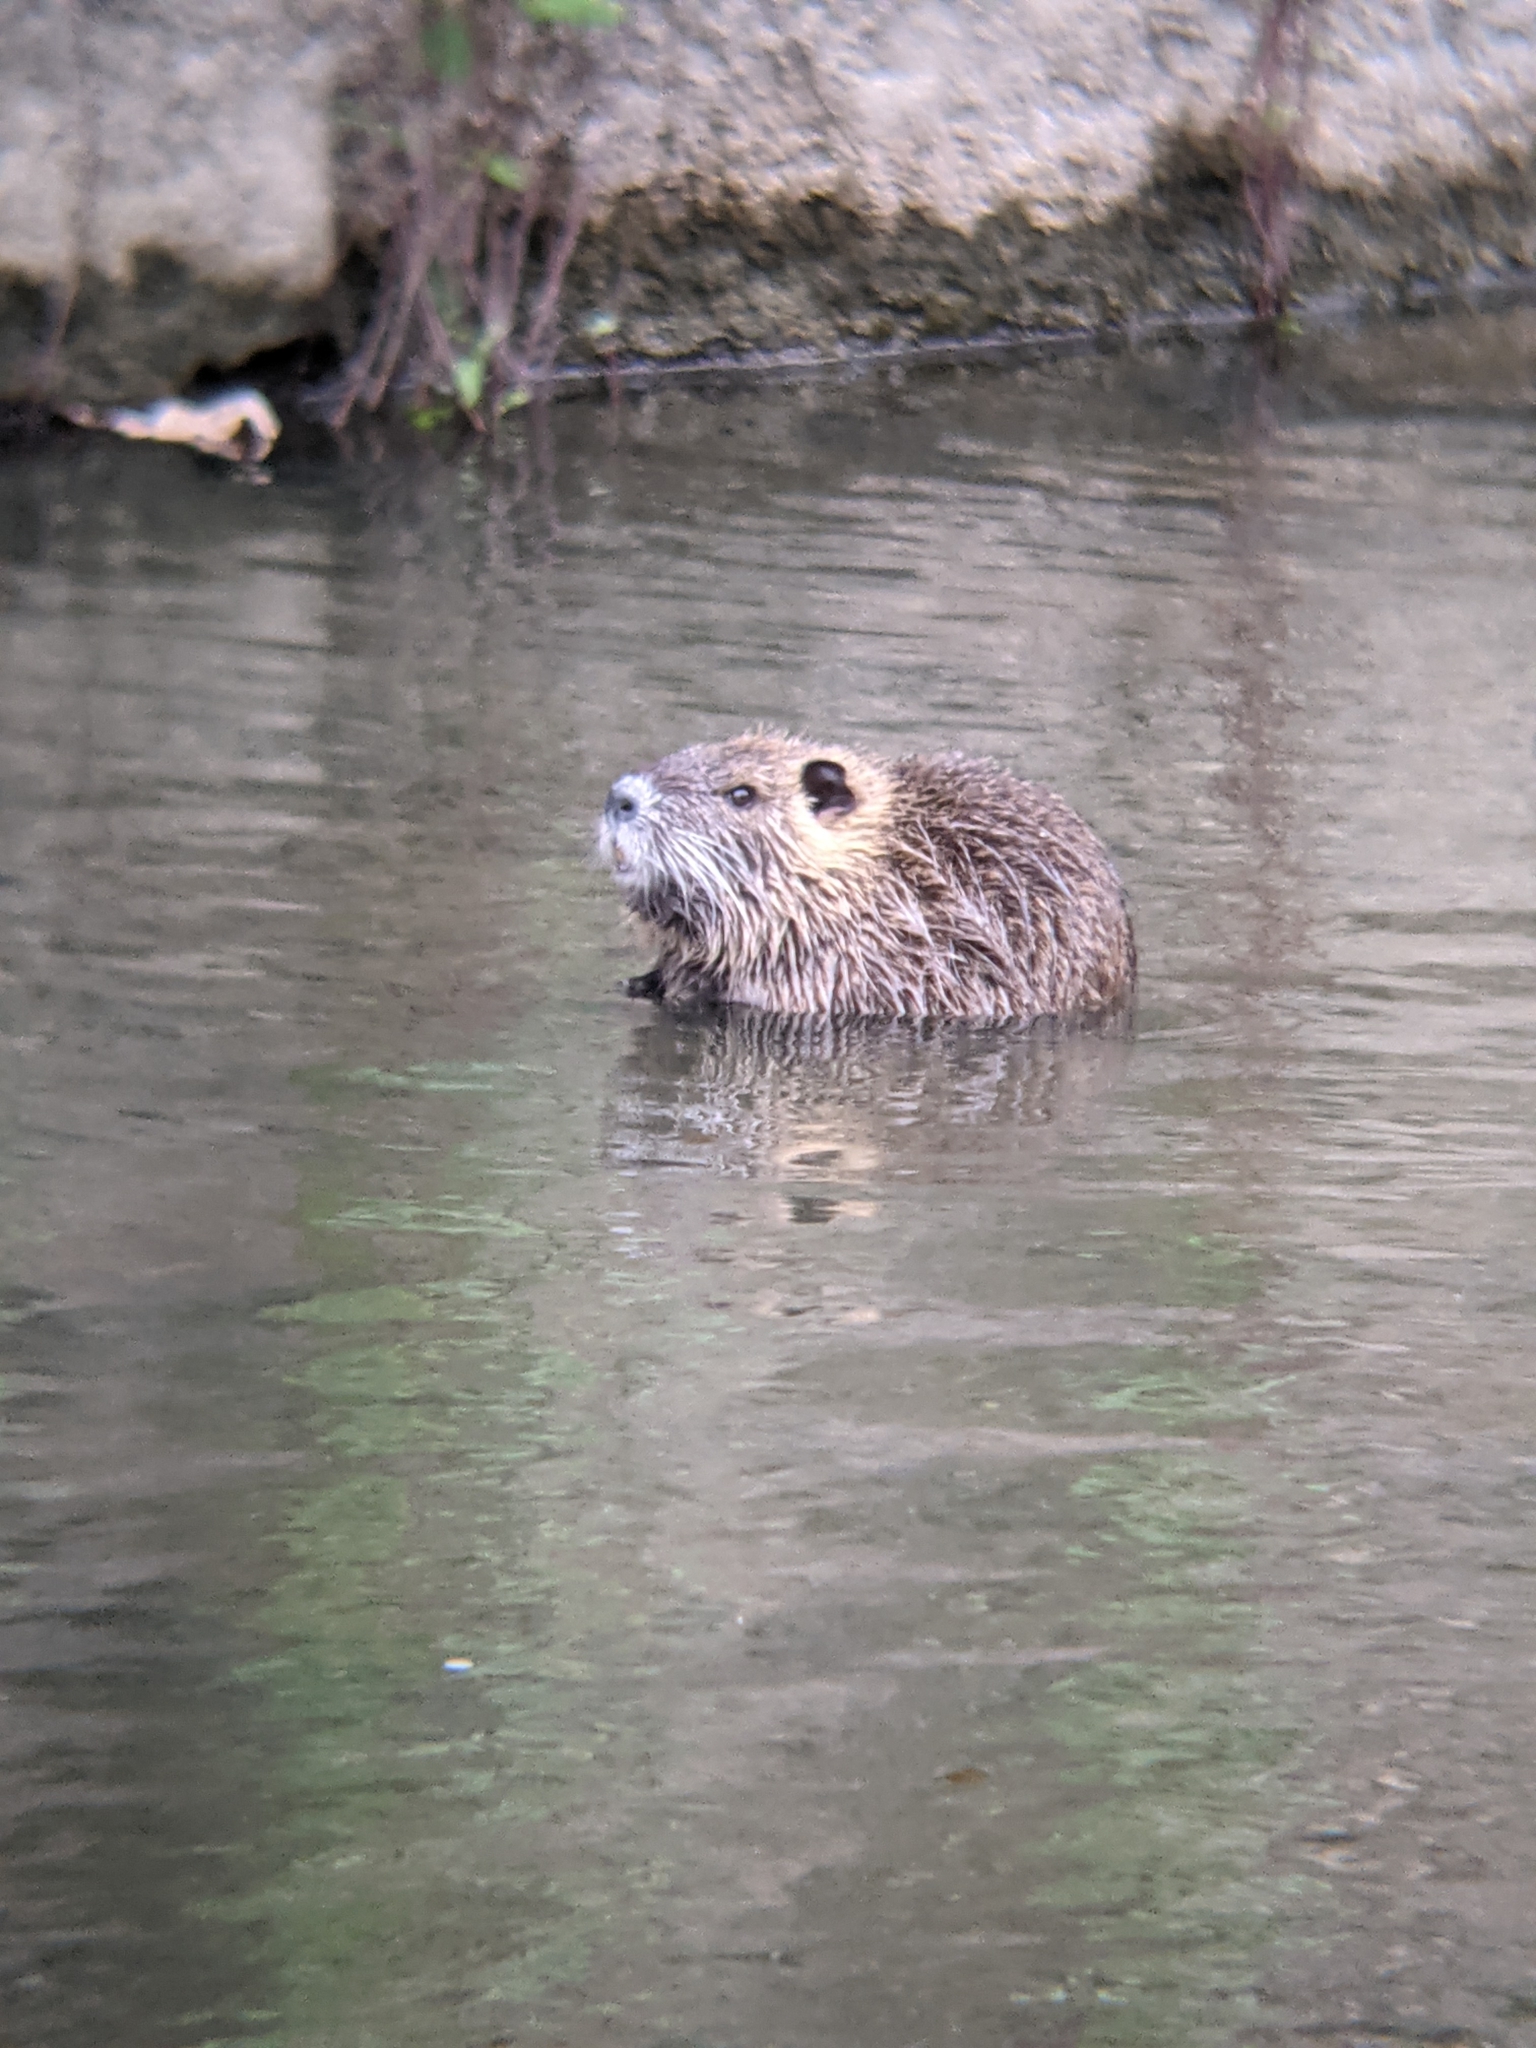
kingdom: Animalia
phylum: Chordata
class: Mammalia
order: Rodentia
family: Myocastoridae
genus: Myocastor
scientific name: Myocastor coypus
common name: Coypu
